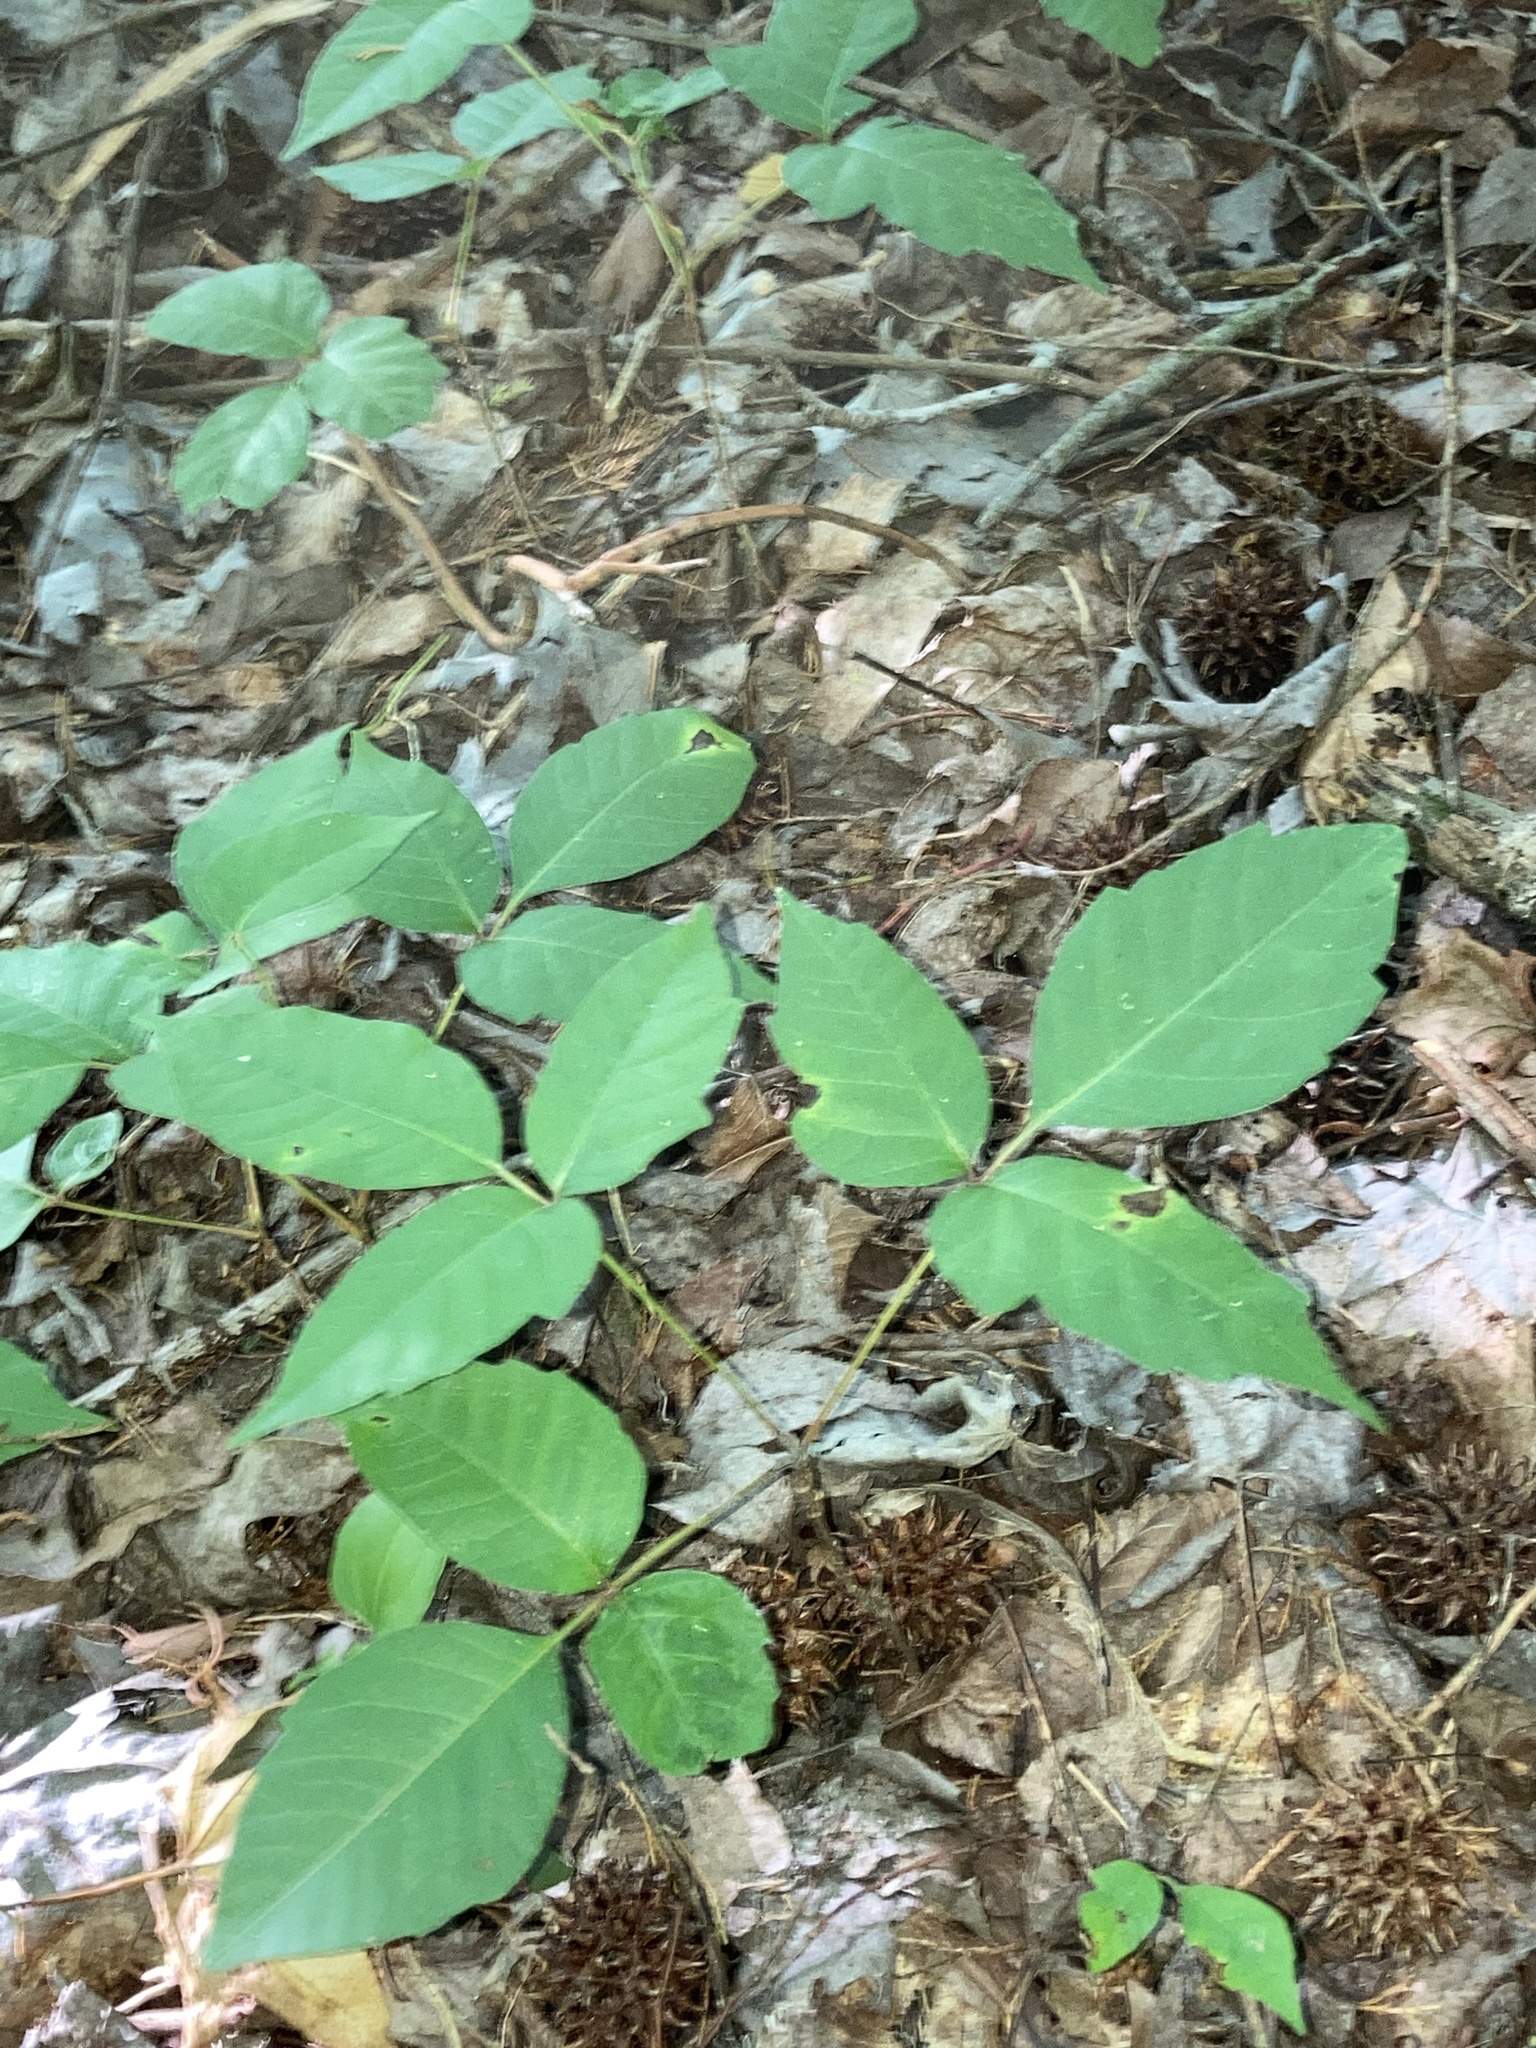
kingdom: Plantae
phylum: Tracheophyta
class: Magnoliopsida
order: Sapindales
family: Anacardiaceae
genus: Toxicodendron
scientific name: Toxicodendron radicans
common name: Poison ivy
